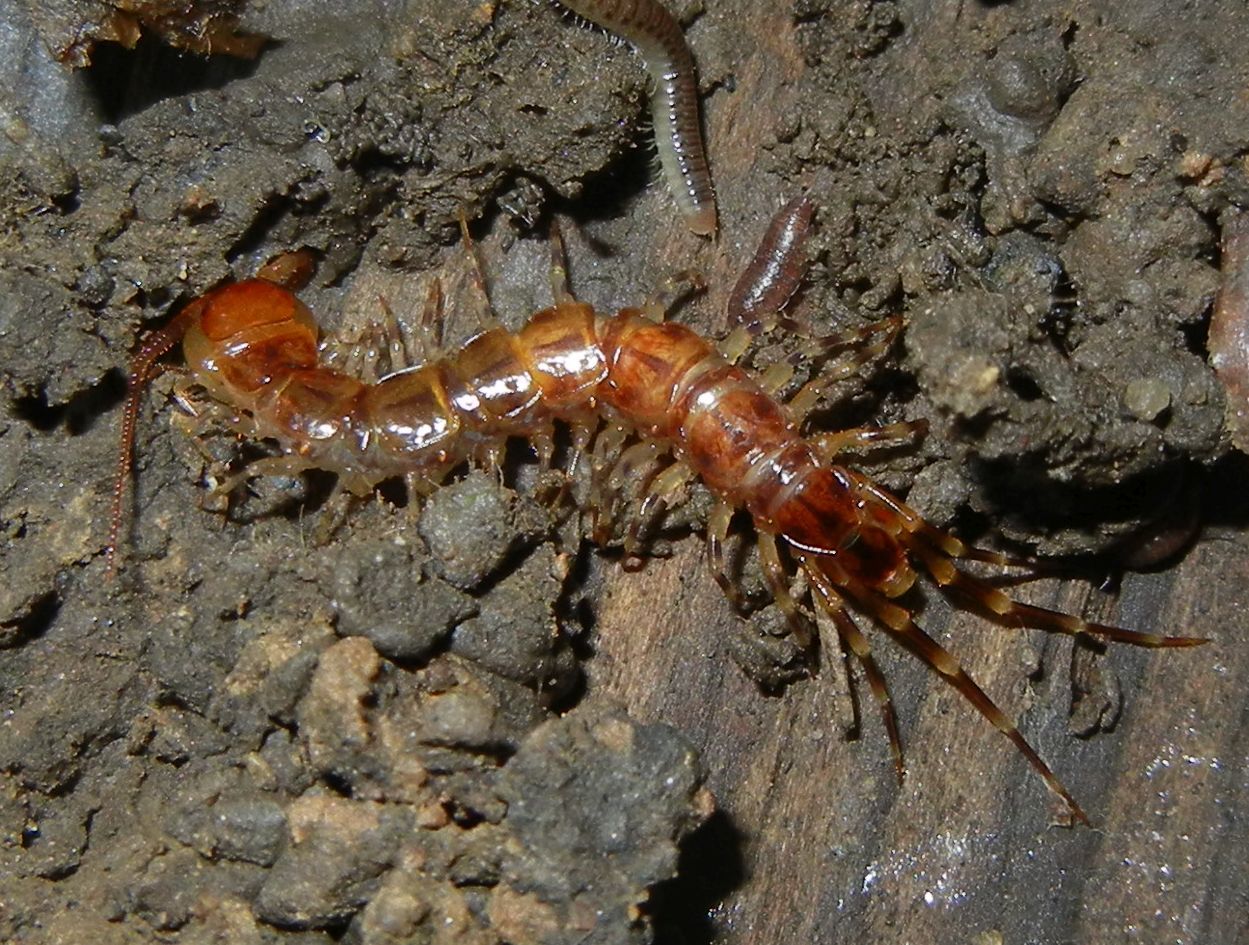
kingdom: Animalia
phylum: Arthropoda
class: Chilopoda
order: Lithobiomorpha
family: Lithobiidae
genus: Lithobius
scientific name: Lithobius variegatus
